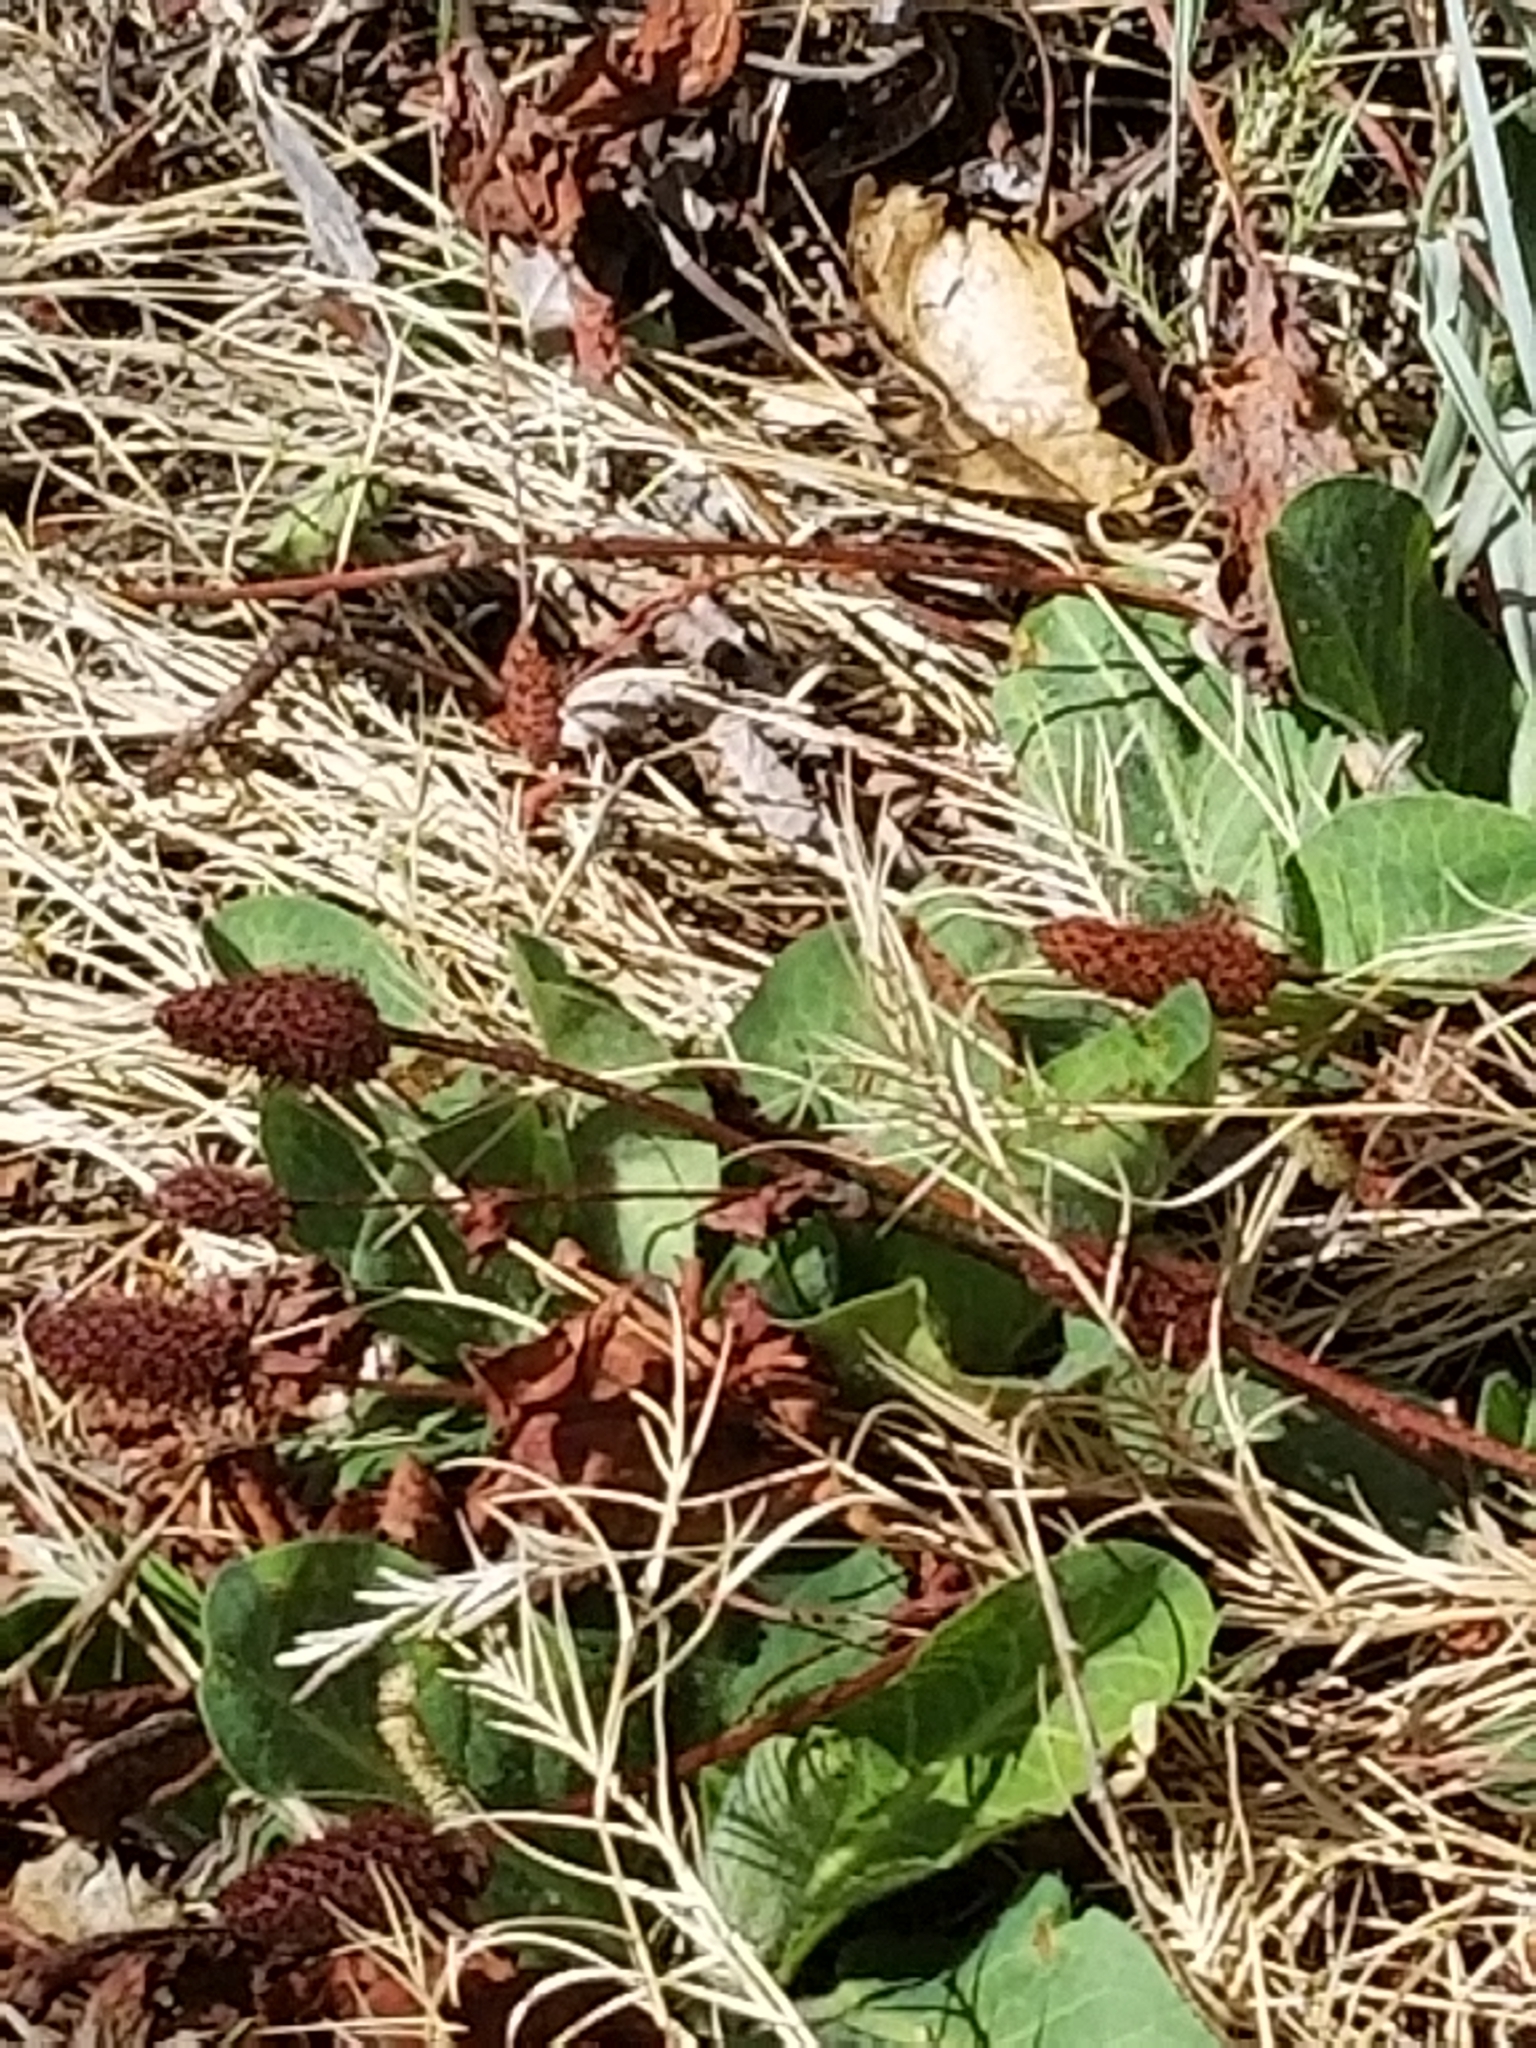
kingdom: Plantae
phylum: Tracheophyta
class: Magnoliopsida
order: Piperales
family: Saururaceae
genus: Anemopsis
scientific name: Anemopsis californica
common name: Apache-beads
